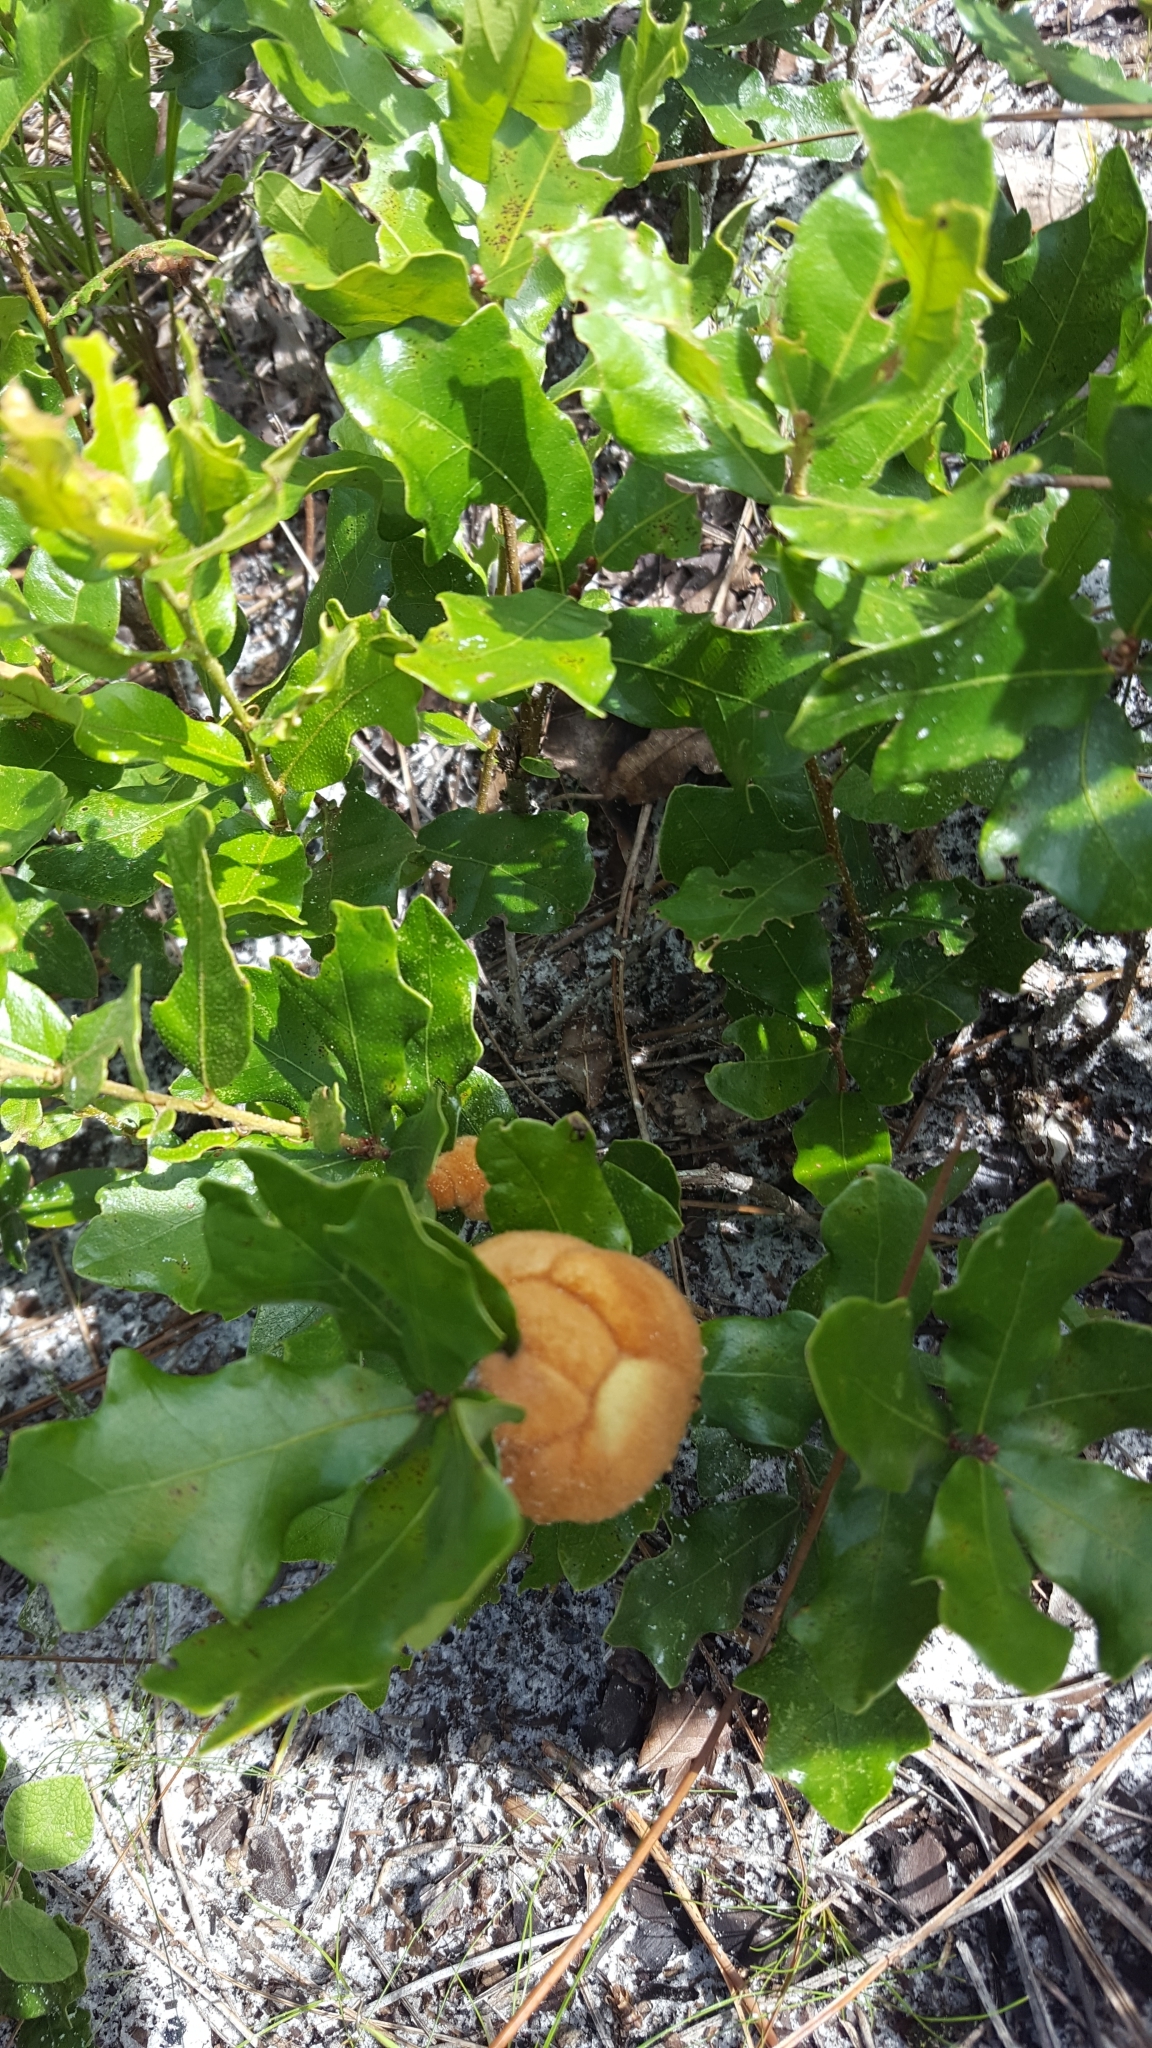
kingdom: Animalia
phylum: Arthropoda
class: Insecta
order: Hymenoptera
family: Cynipidae
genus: Disholcaspis
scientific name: Disholcaspis
